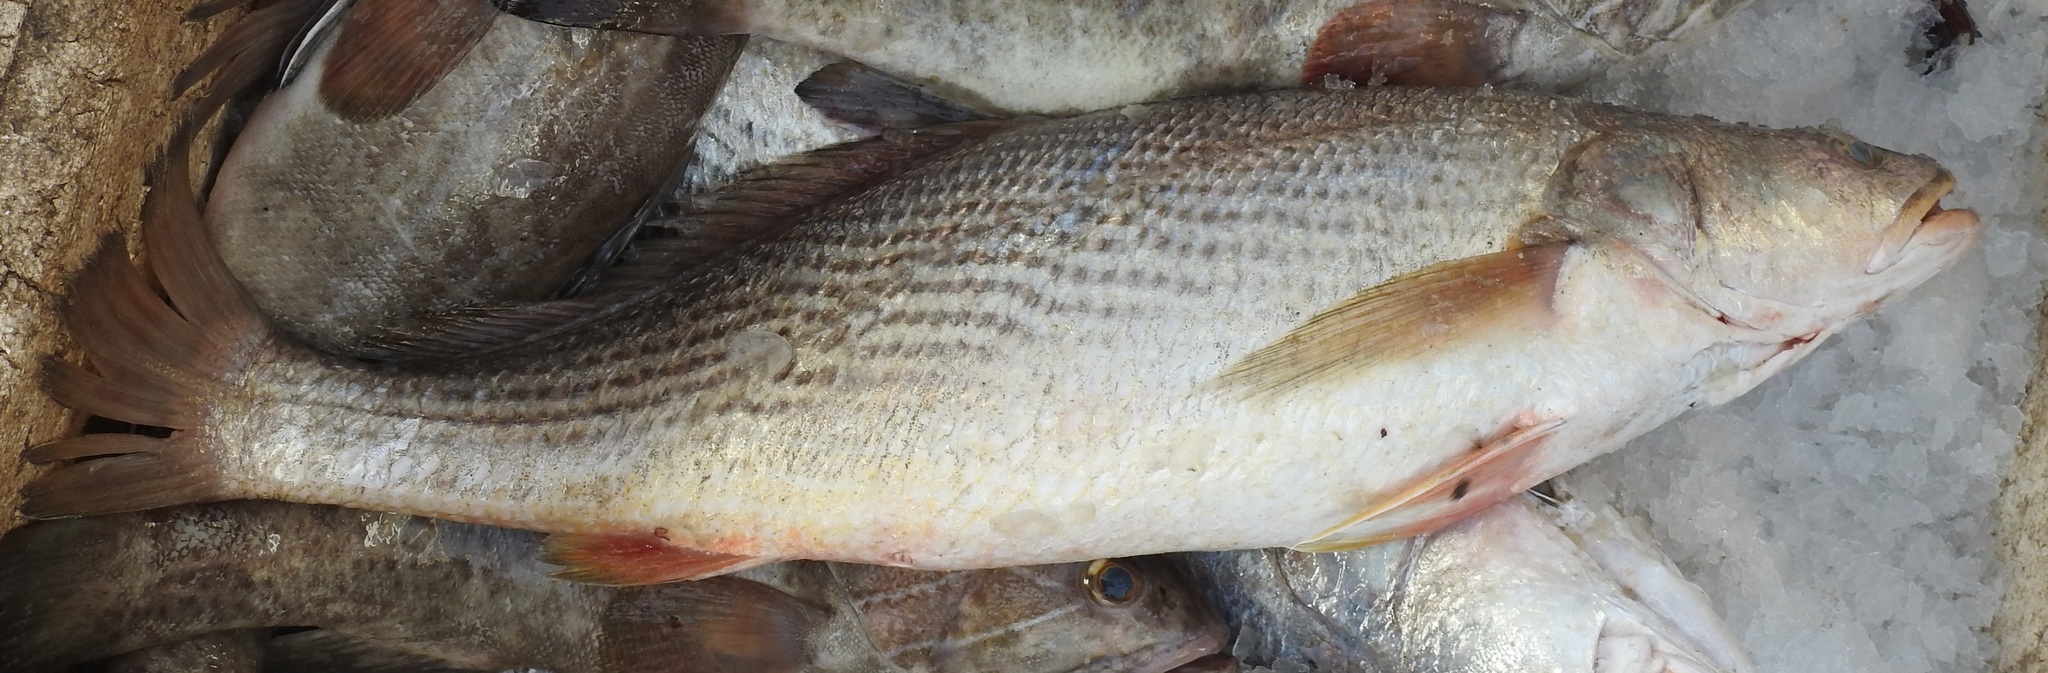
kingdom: Animalia
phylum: Chordata
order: Perciformes
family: Sciaenidae
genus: Pseudotolithus
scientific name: Pseudotolithus senegalensis
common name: Cassava croaker
